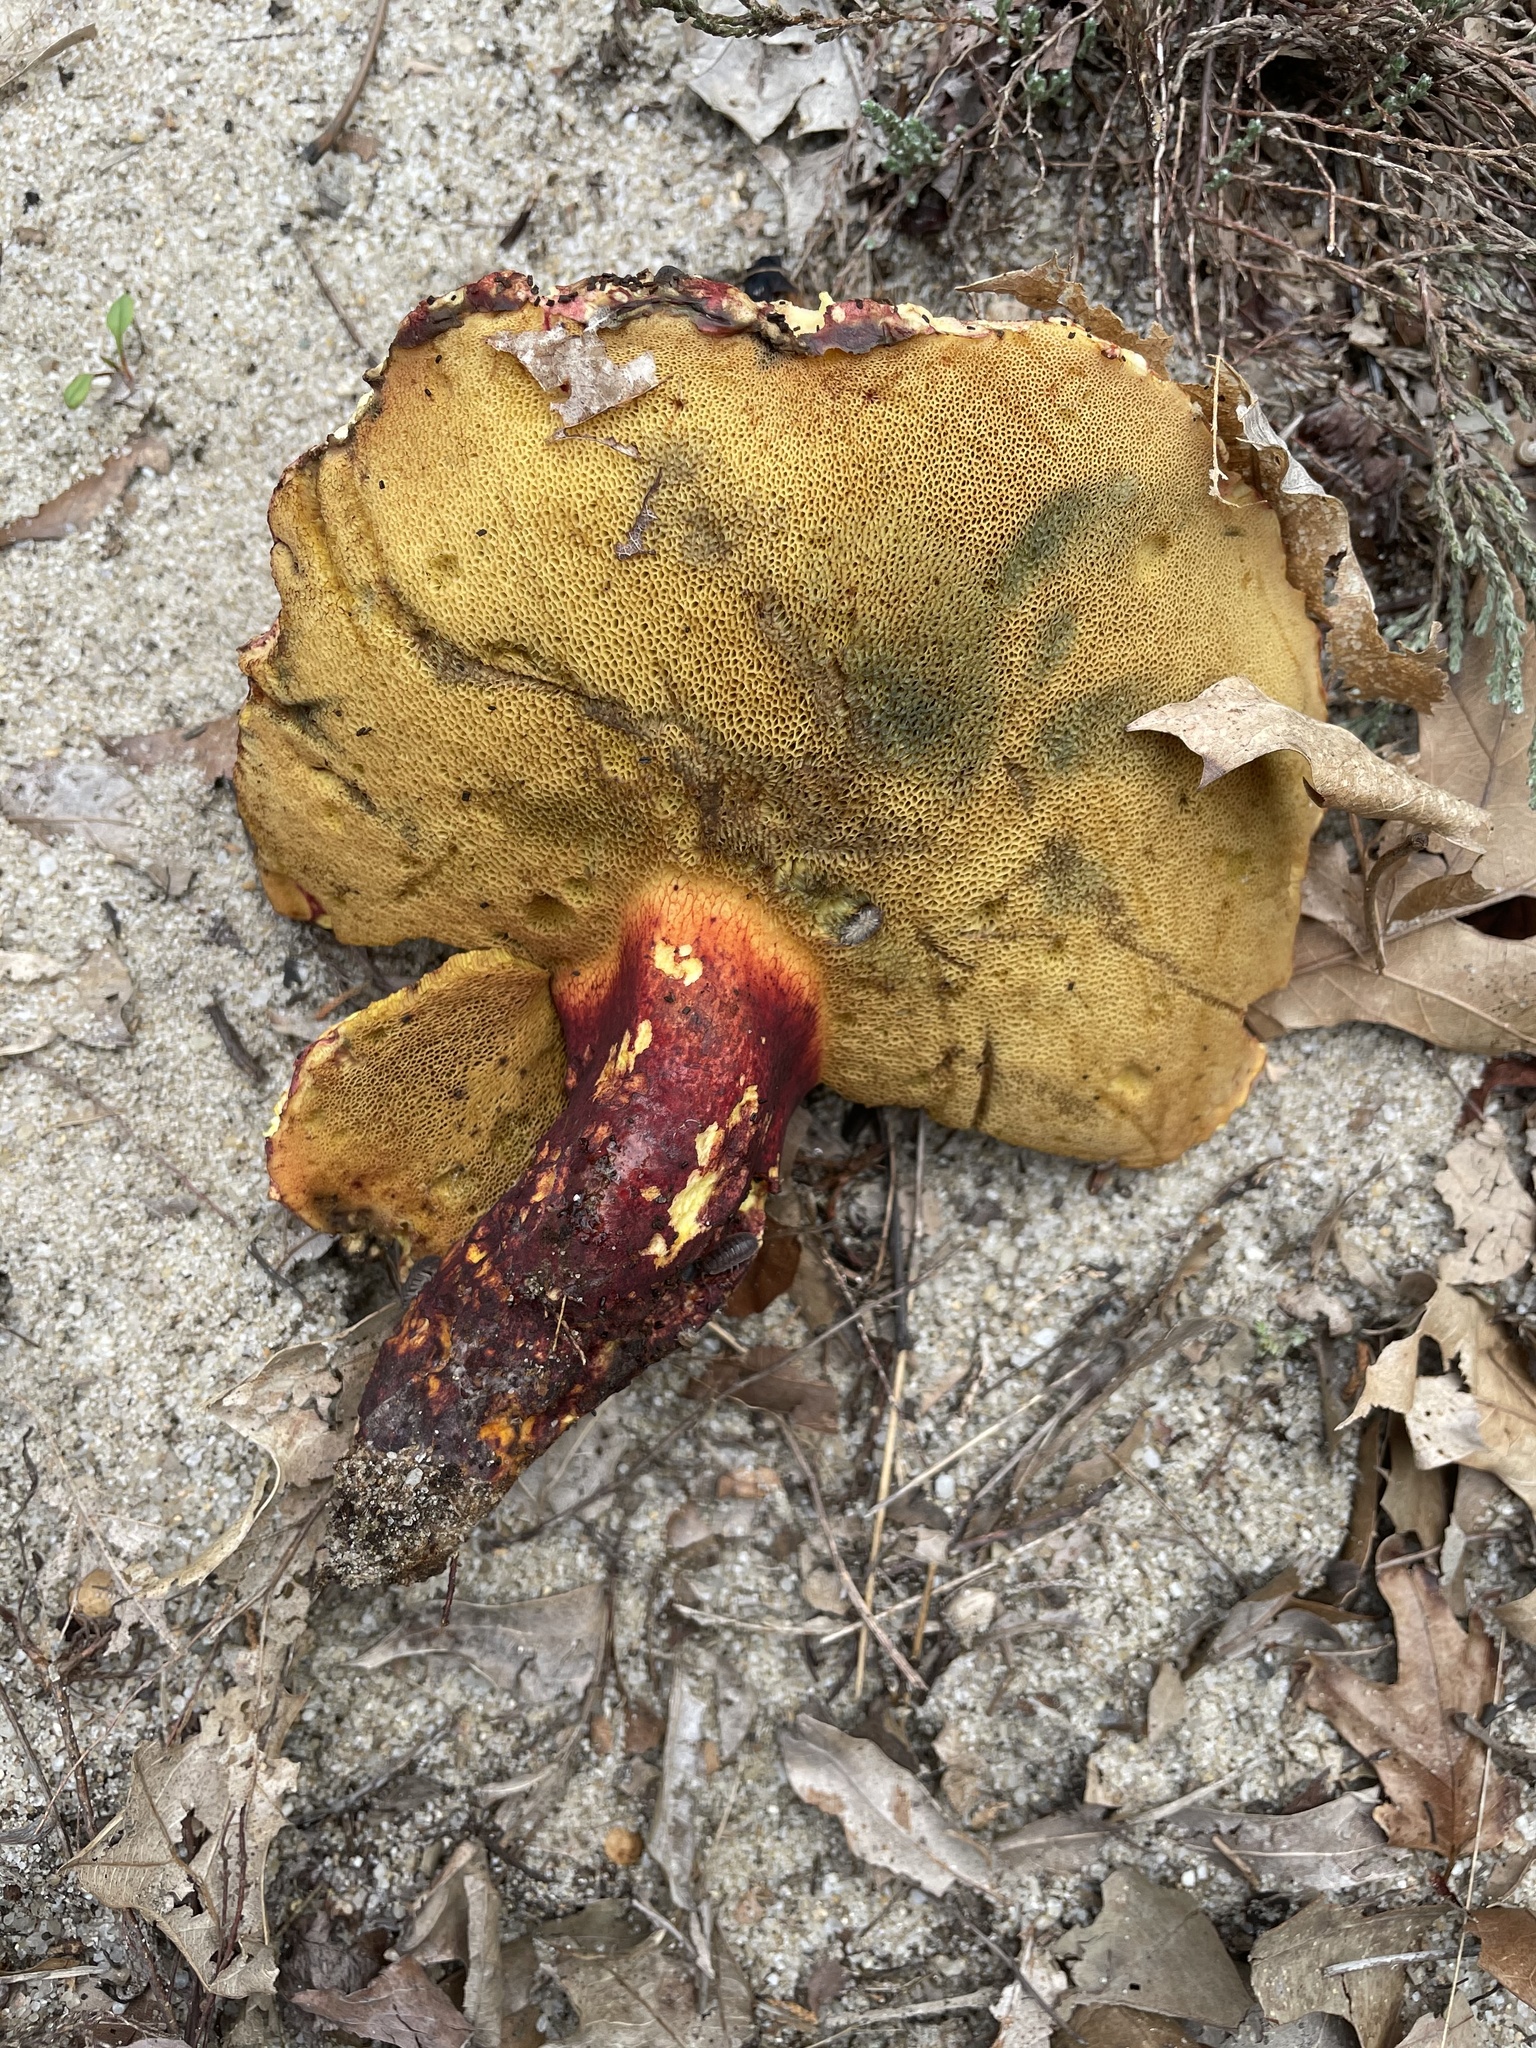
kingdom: Fungi
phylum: Basidiomycota
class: Agaricomycetes
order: Boletales
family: Boletaceae
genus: Baorangia
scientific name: Baorangia bicolor
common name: Two-colored bolete
